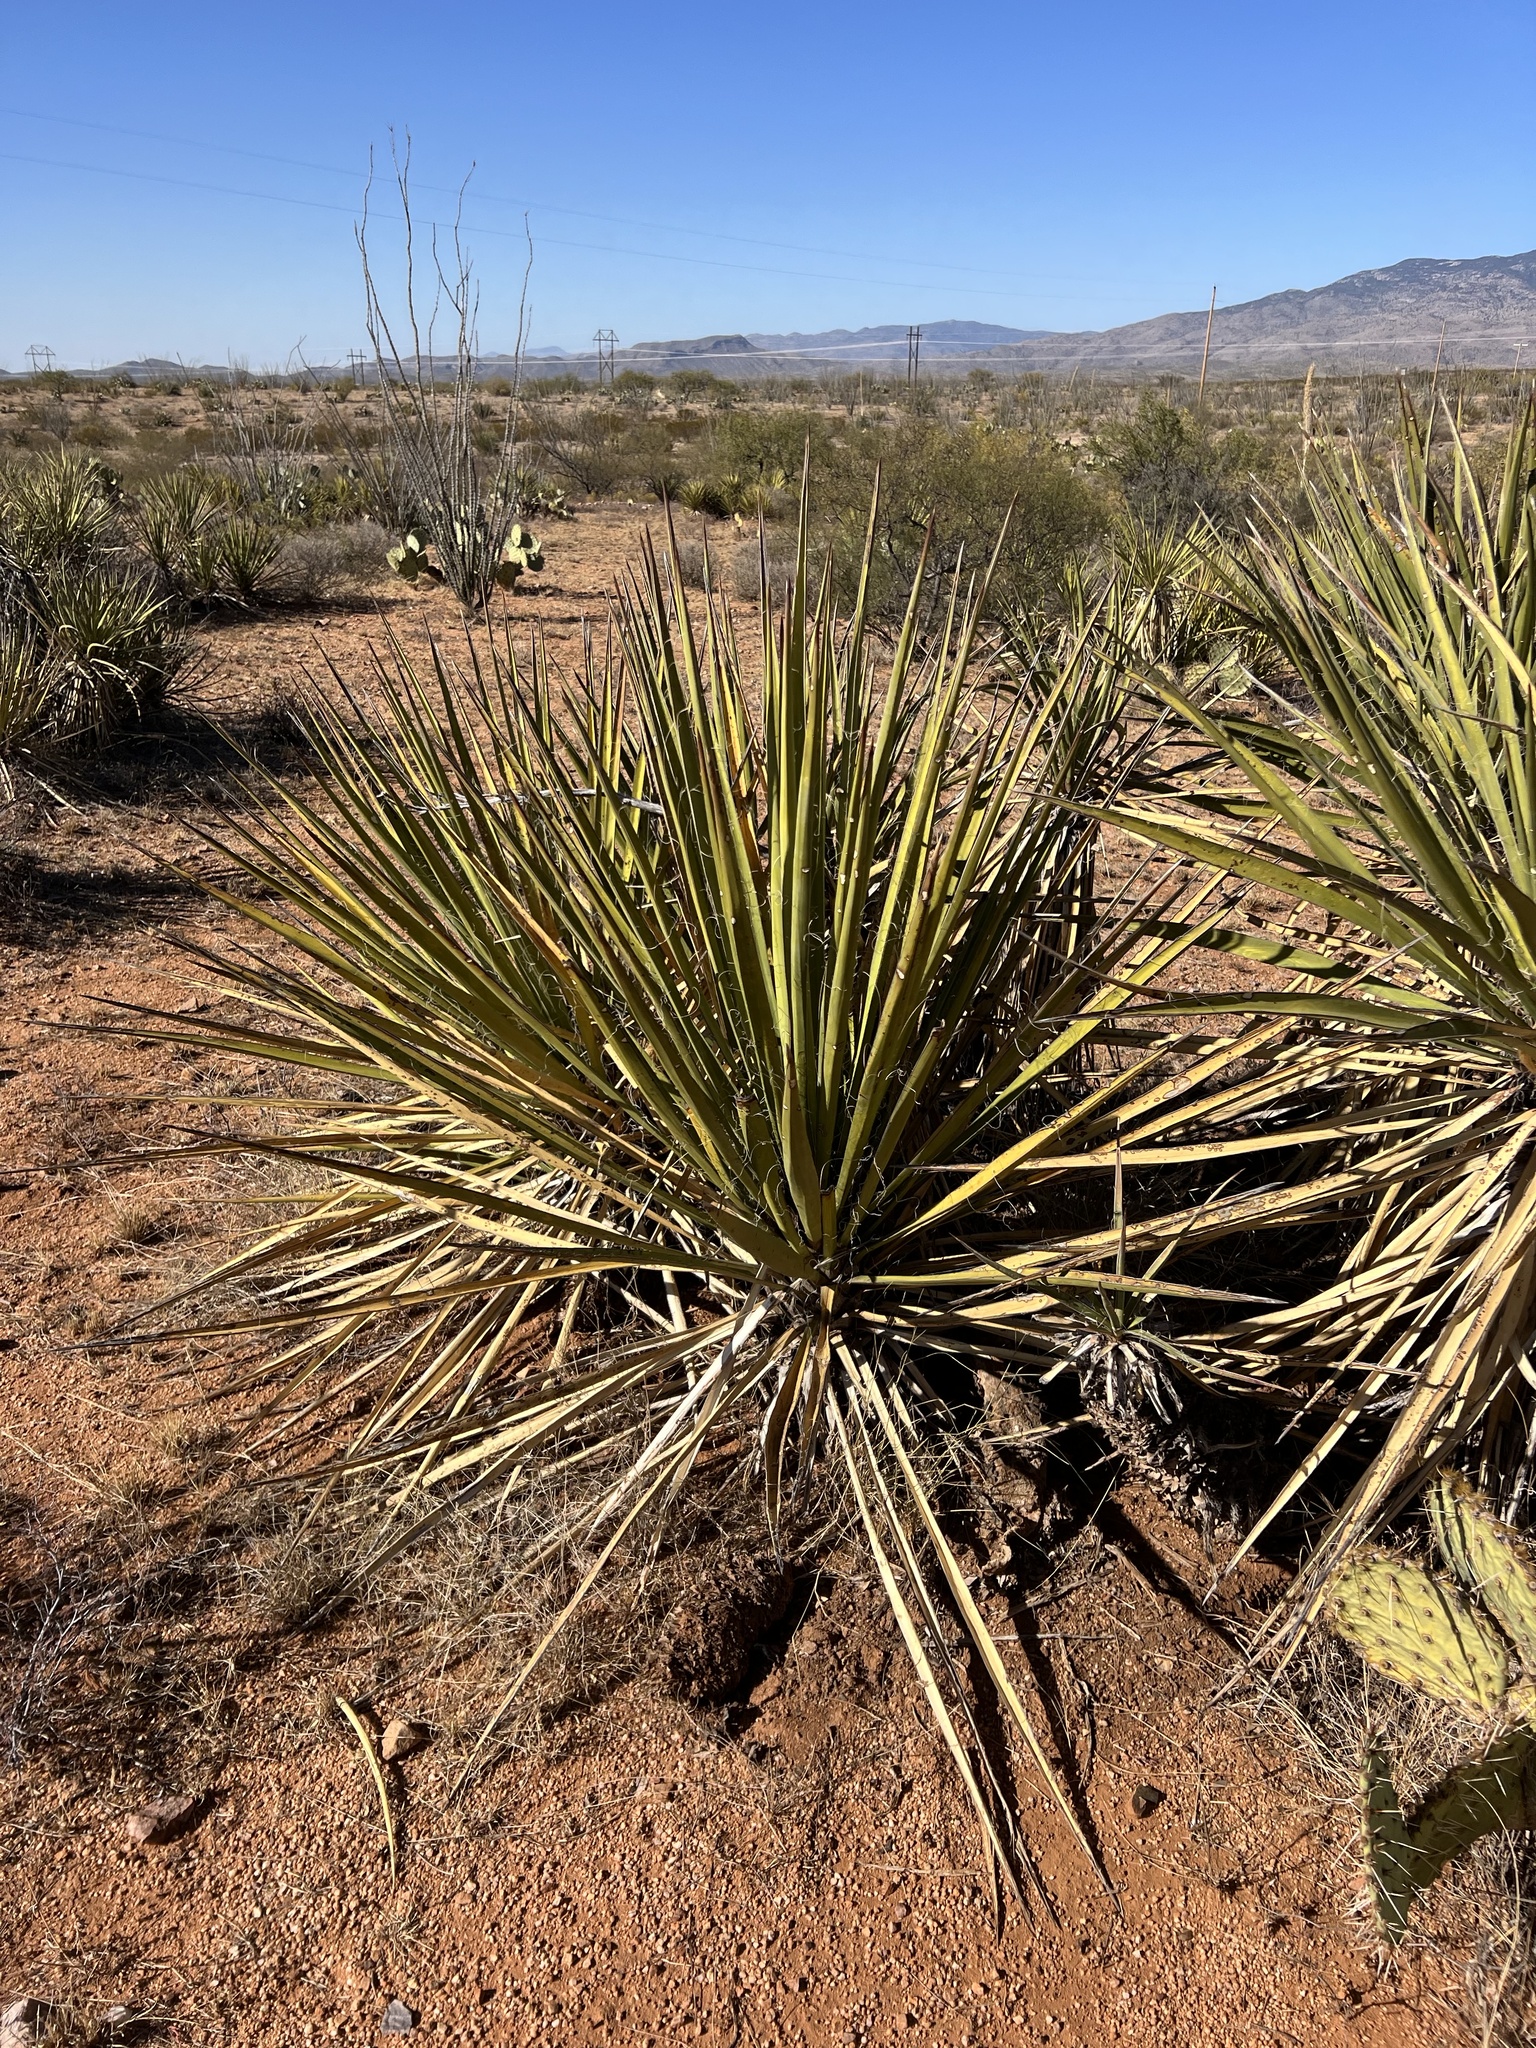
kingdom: Plantae
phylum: Tracheophyta
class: Liliopsida
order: Asparagales
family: Asparagaceae
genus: Yucca
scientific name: Yucca baccata
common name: Banana yucca
